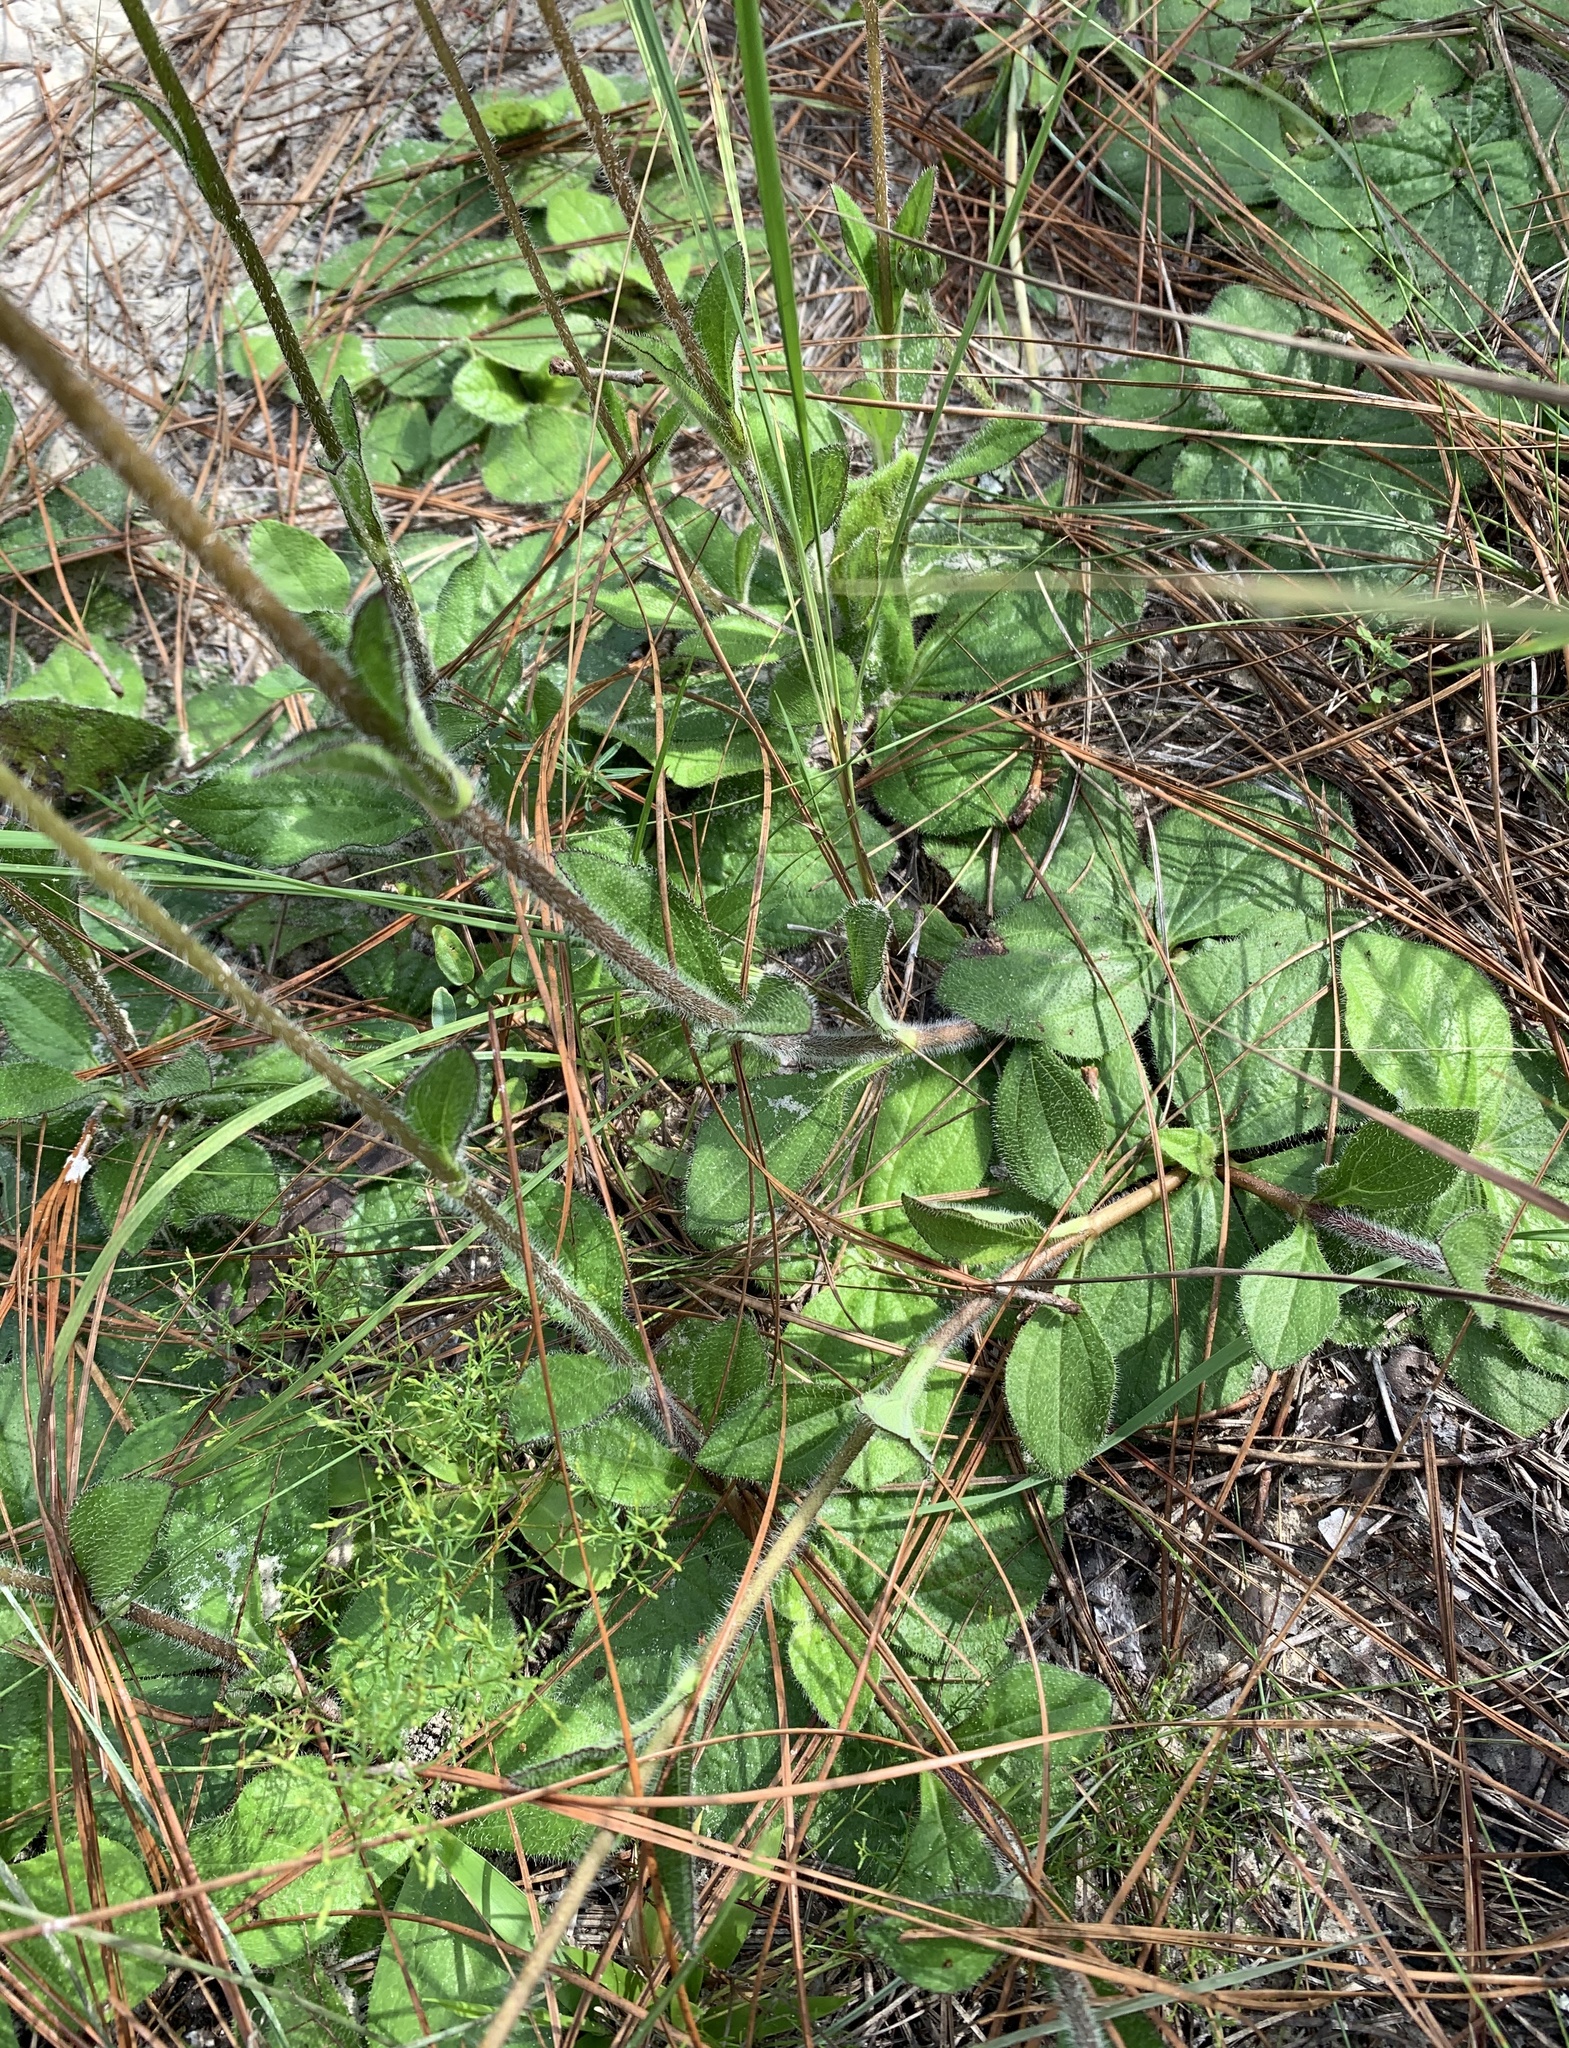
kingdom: Plantae
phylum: Tracheophyta
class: Magnoliopsida
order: Asterales
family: Asteraceae
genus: Helianthus
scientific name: Helianthus radula
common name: Pineland sunflower
